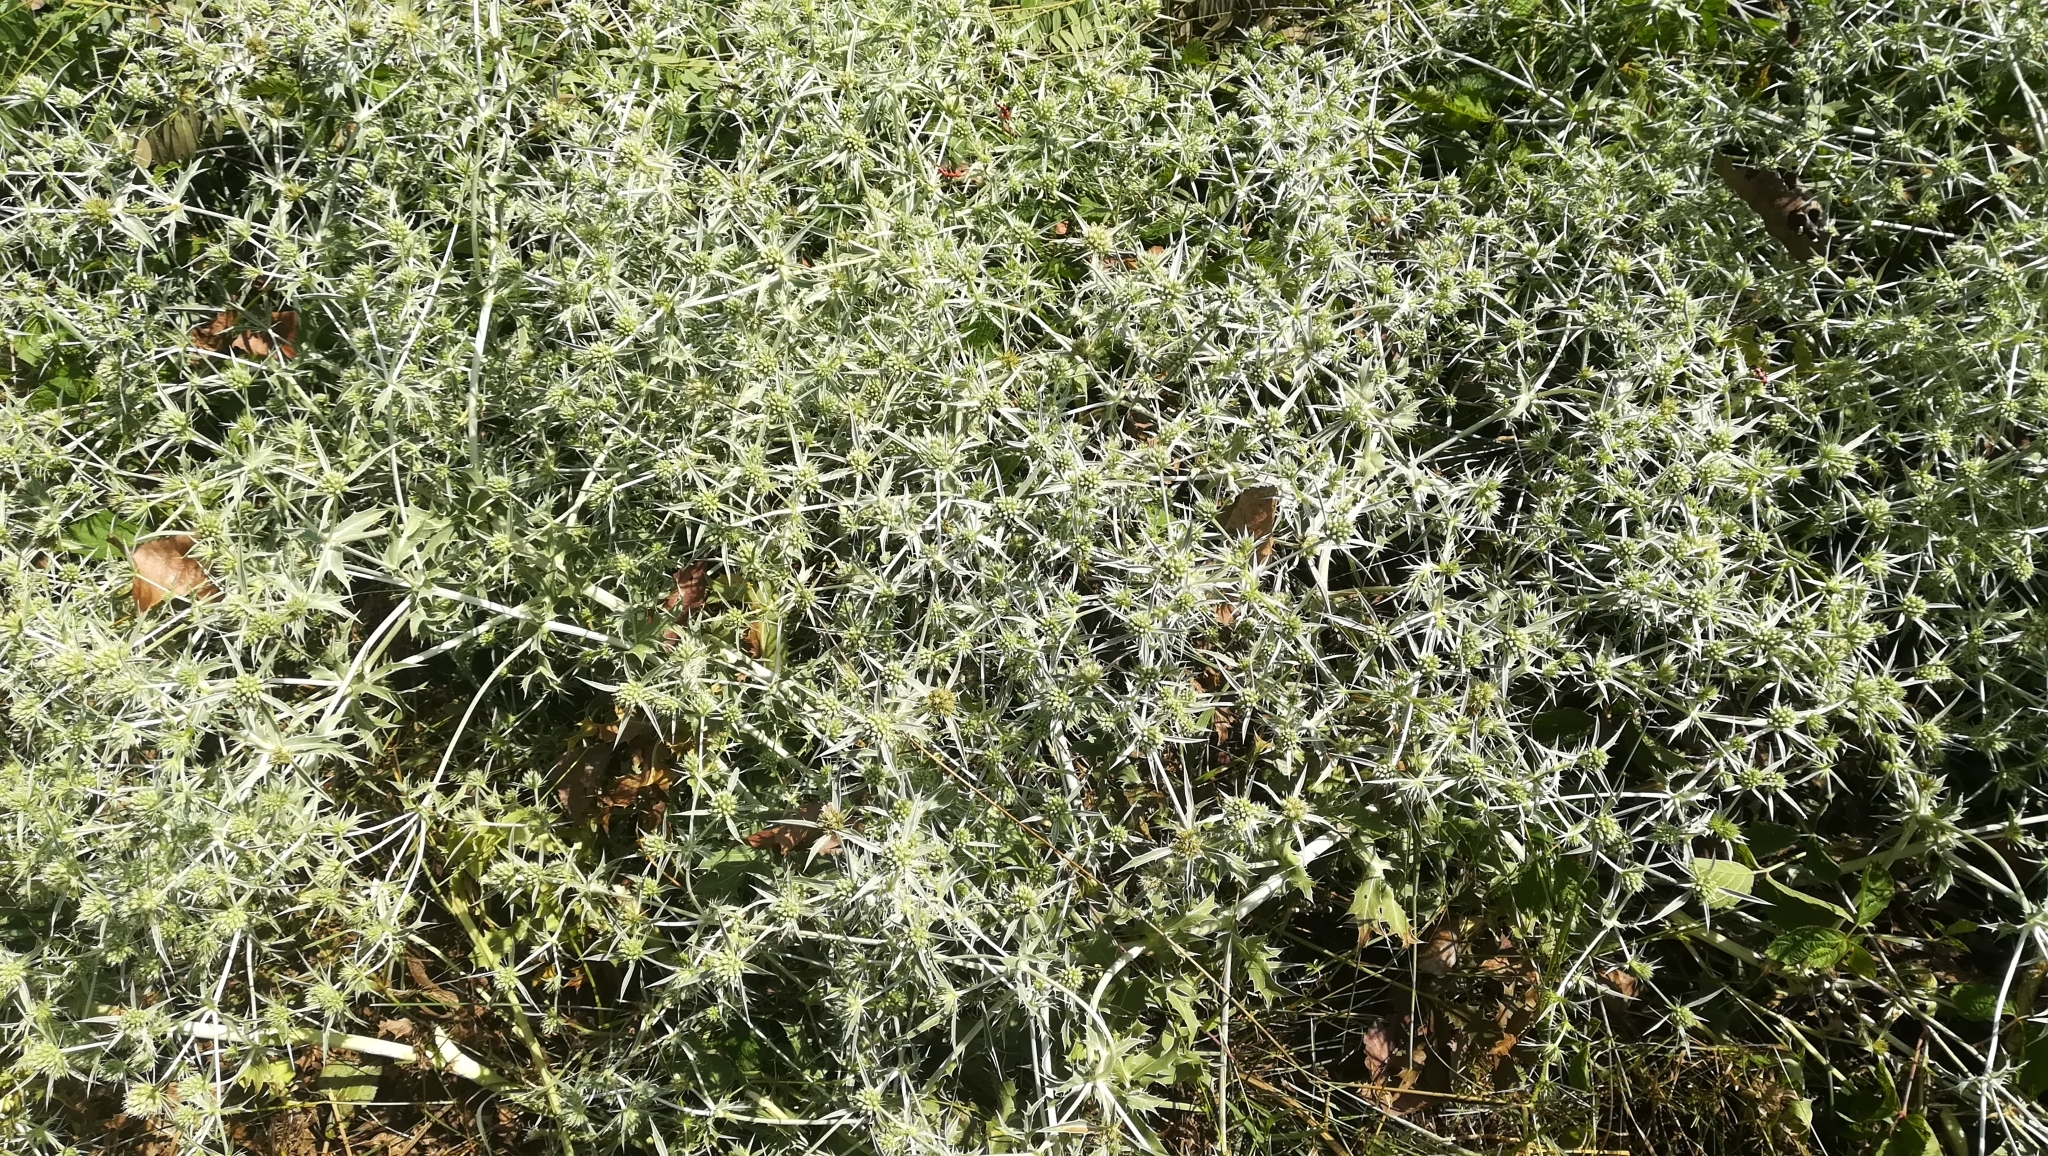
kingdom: Plantae
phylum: Tracheophyta
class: Magnoliopsida
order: Apiales
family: Apiaceae
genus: Eryngium
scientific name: Eryngium campestre
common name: Field eryngo
